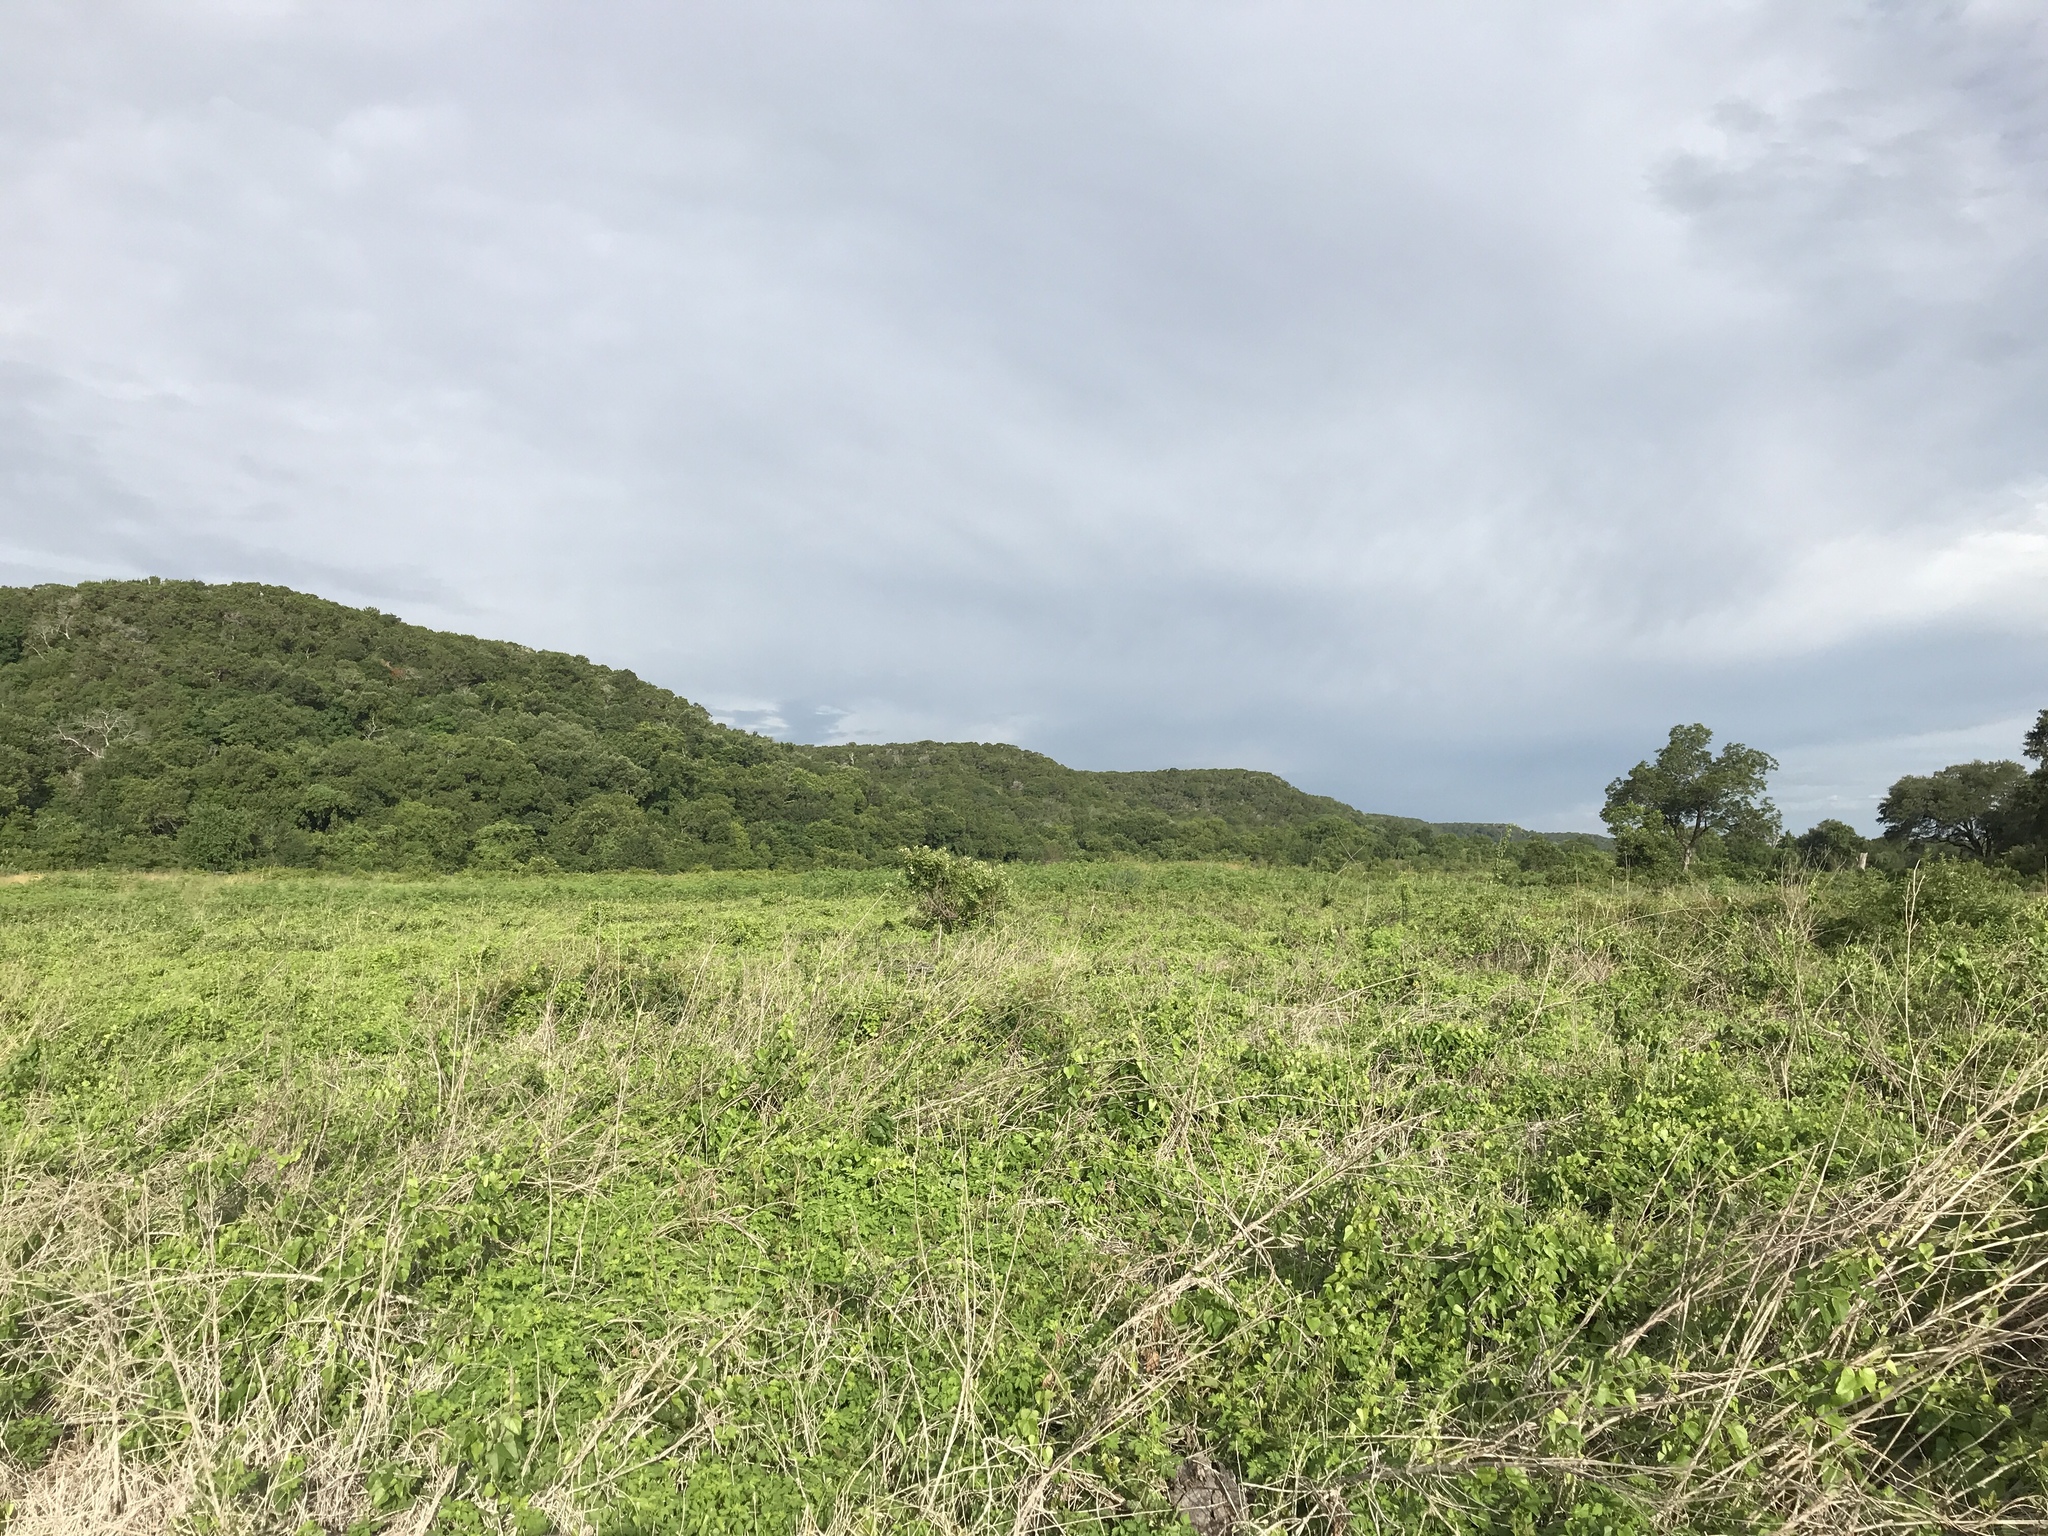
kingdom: Plantae
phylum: Tracheophyta
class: Magnoliopsida
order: Malpighiales
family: Salicaceae
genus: Salix
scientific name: Salix nigra
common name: Black willow
